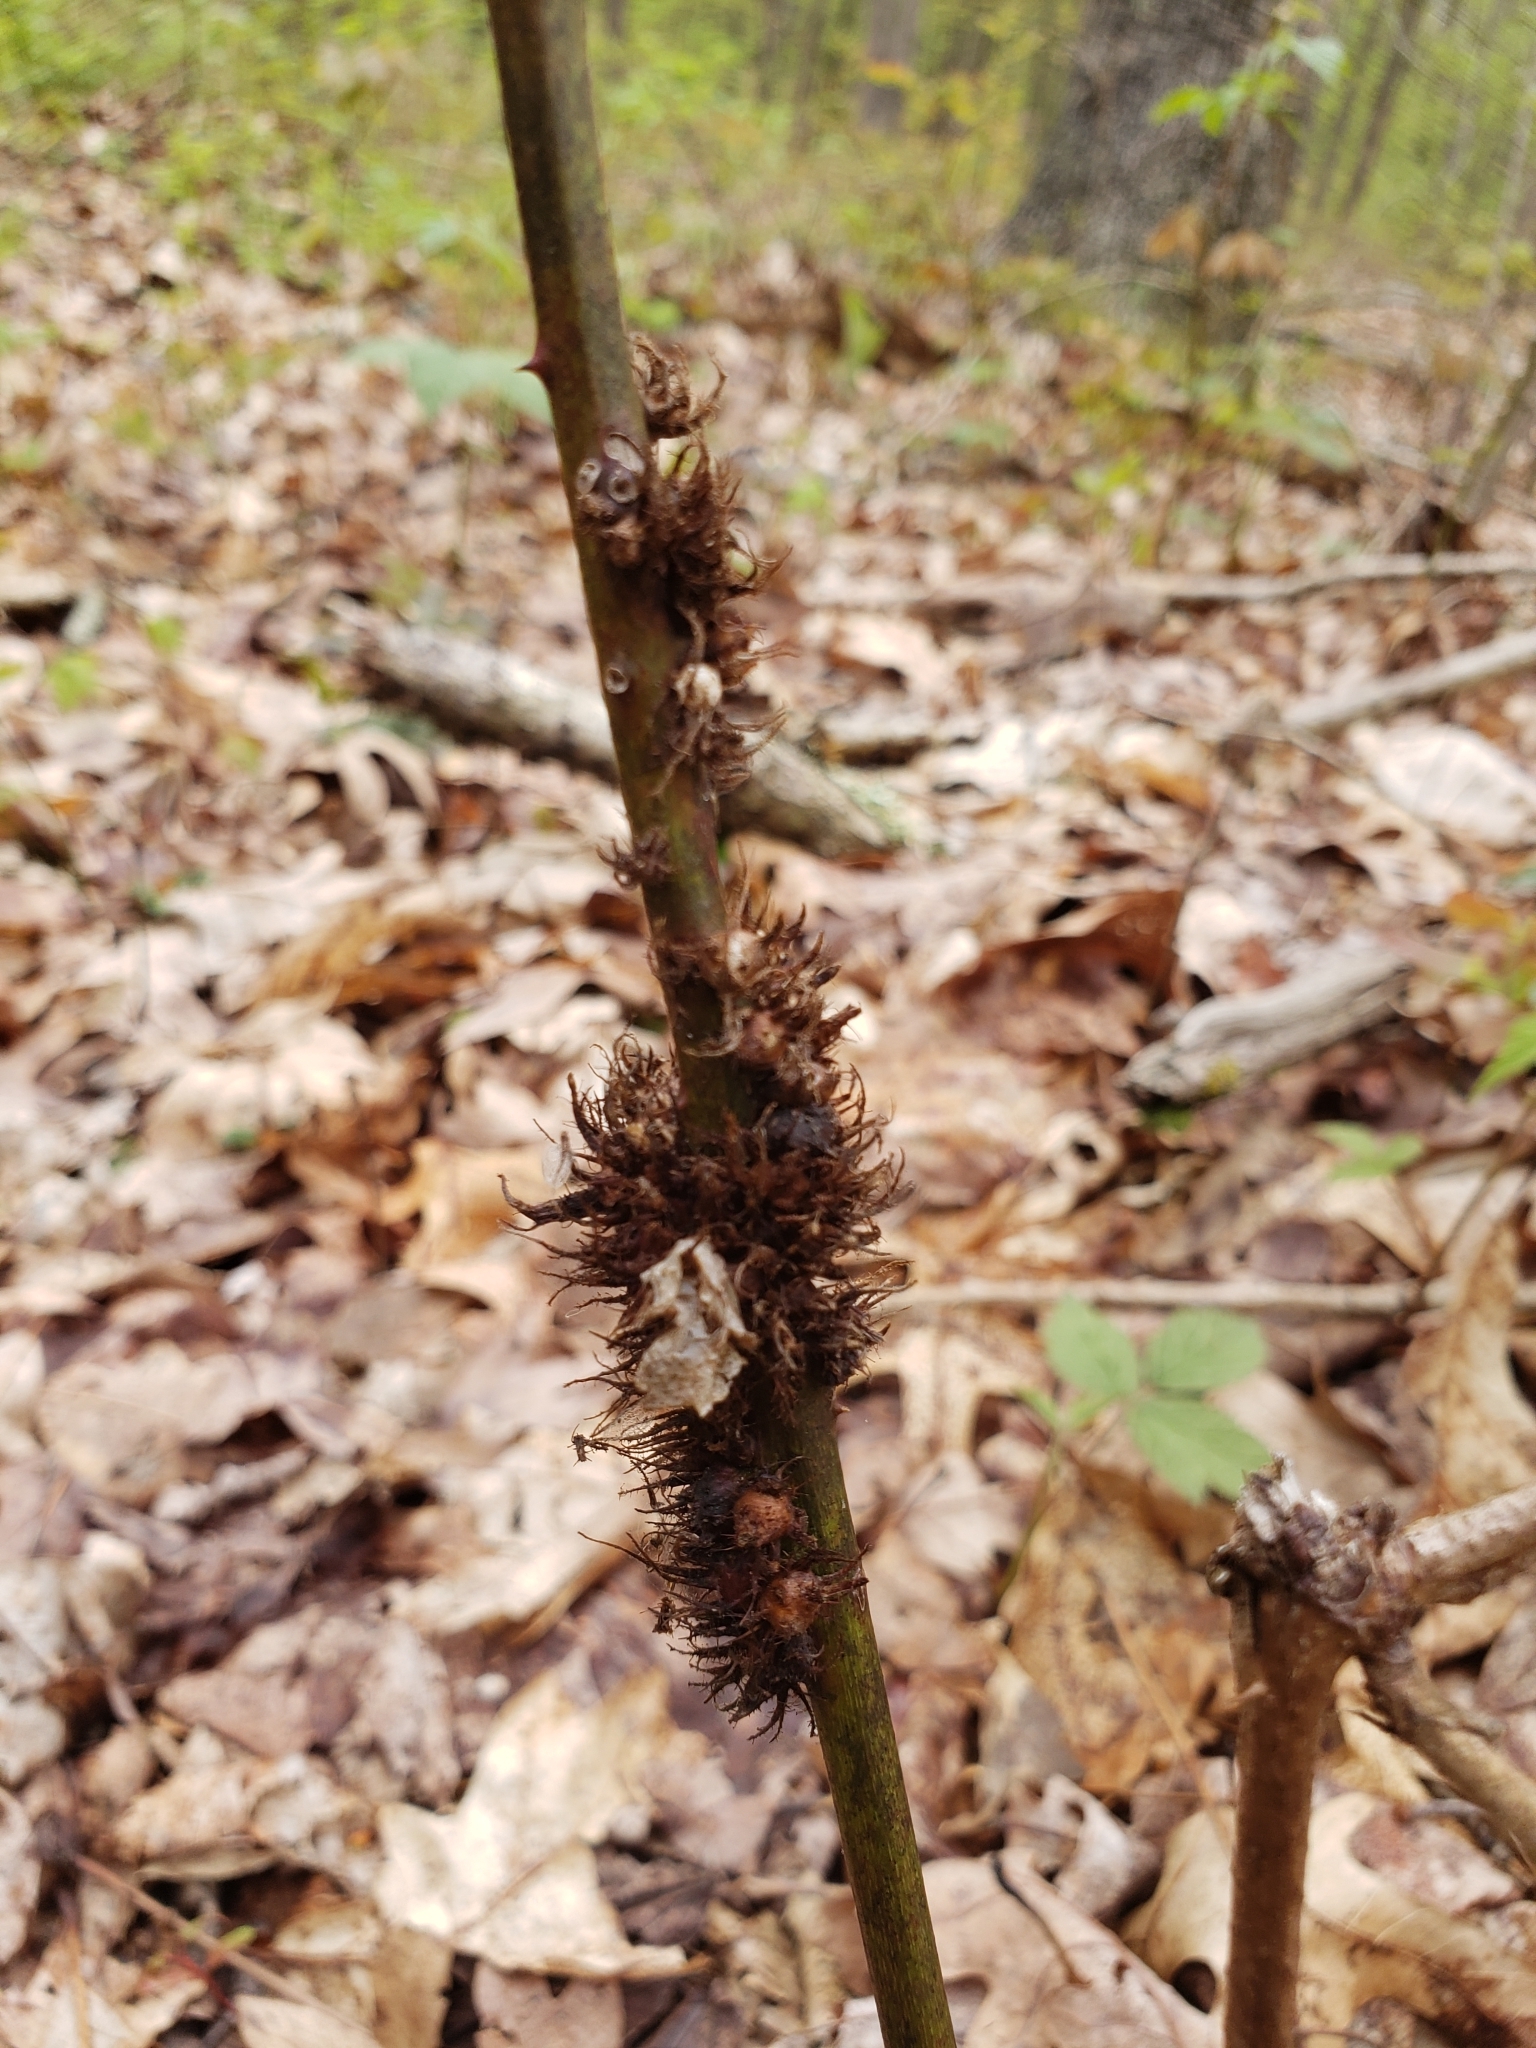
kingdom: Animalia
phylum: Arthropoda
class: Insecta
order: Hymenoptera
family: Cynipidae
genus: Diastrophus
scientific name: Diastrophus
